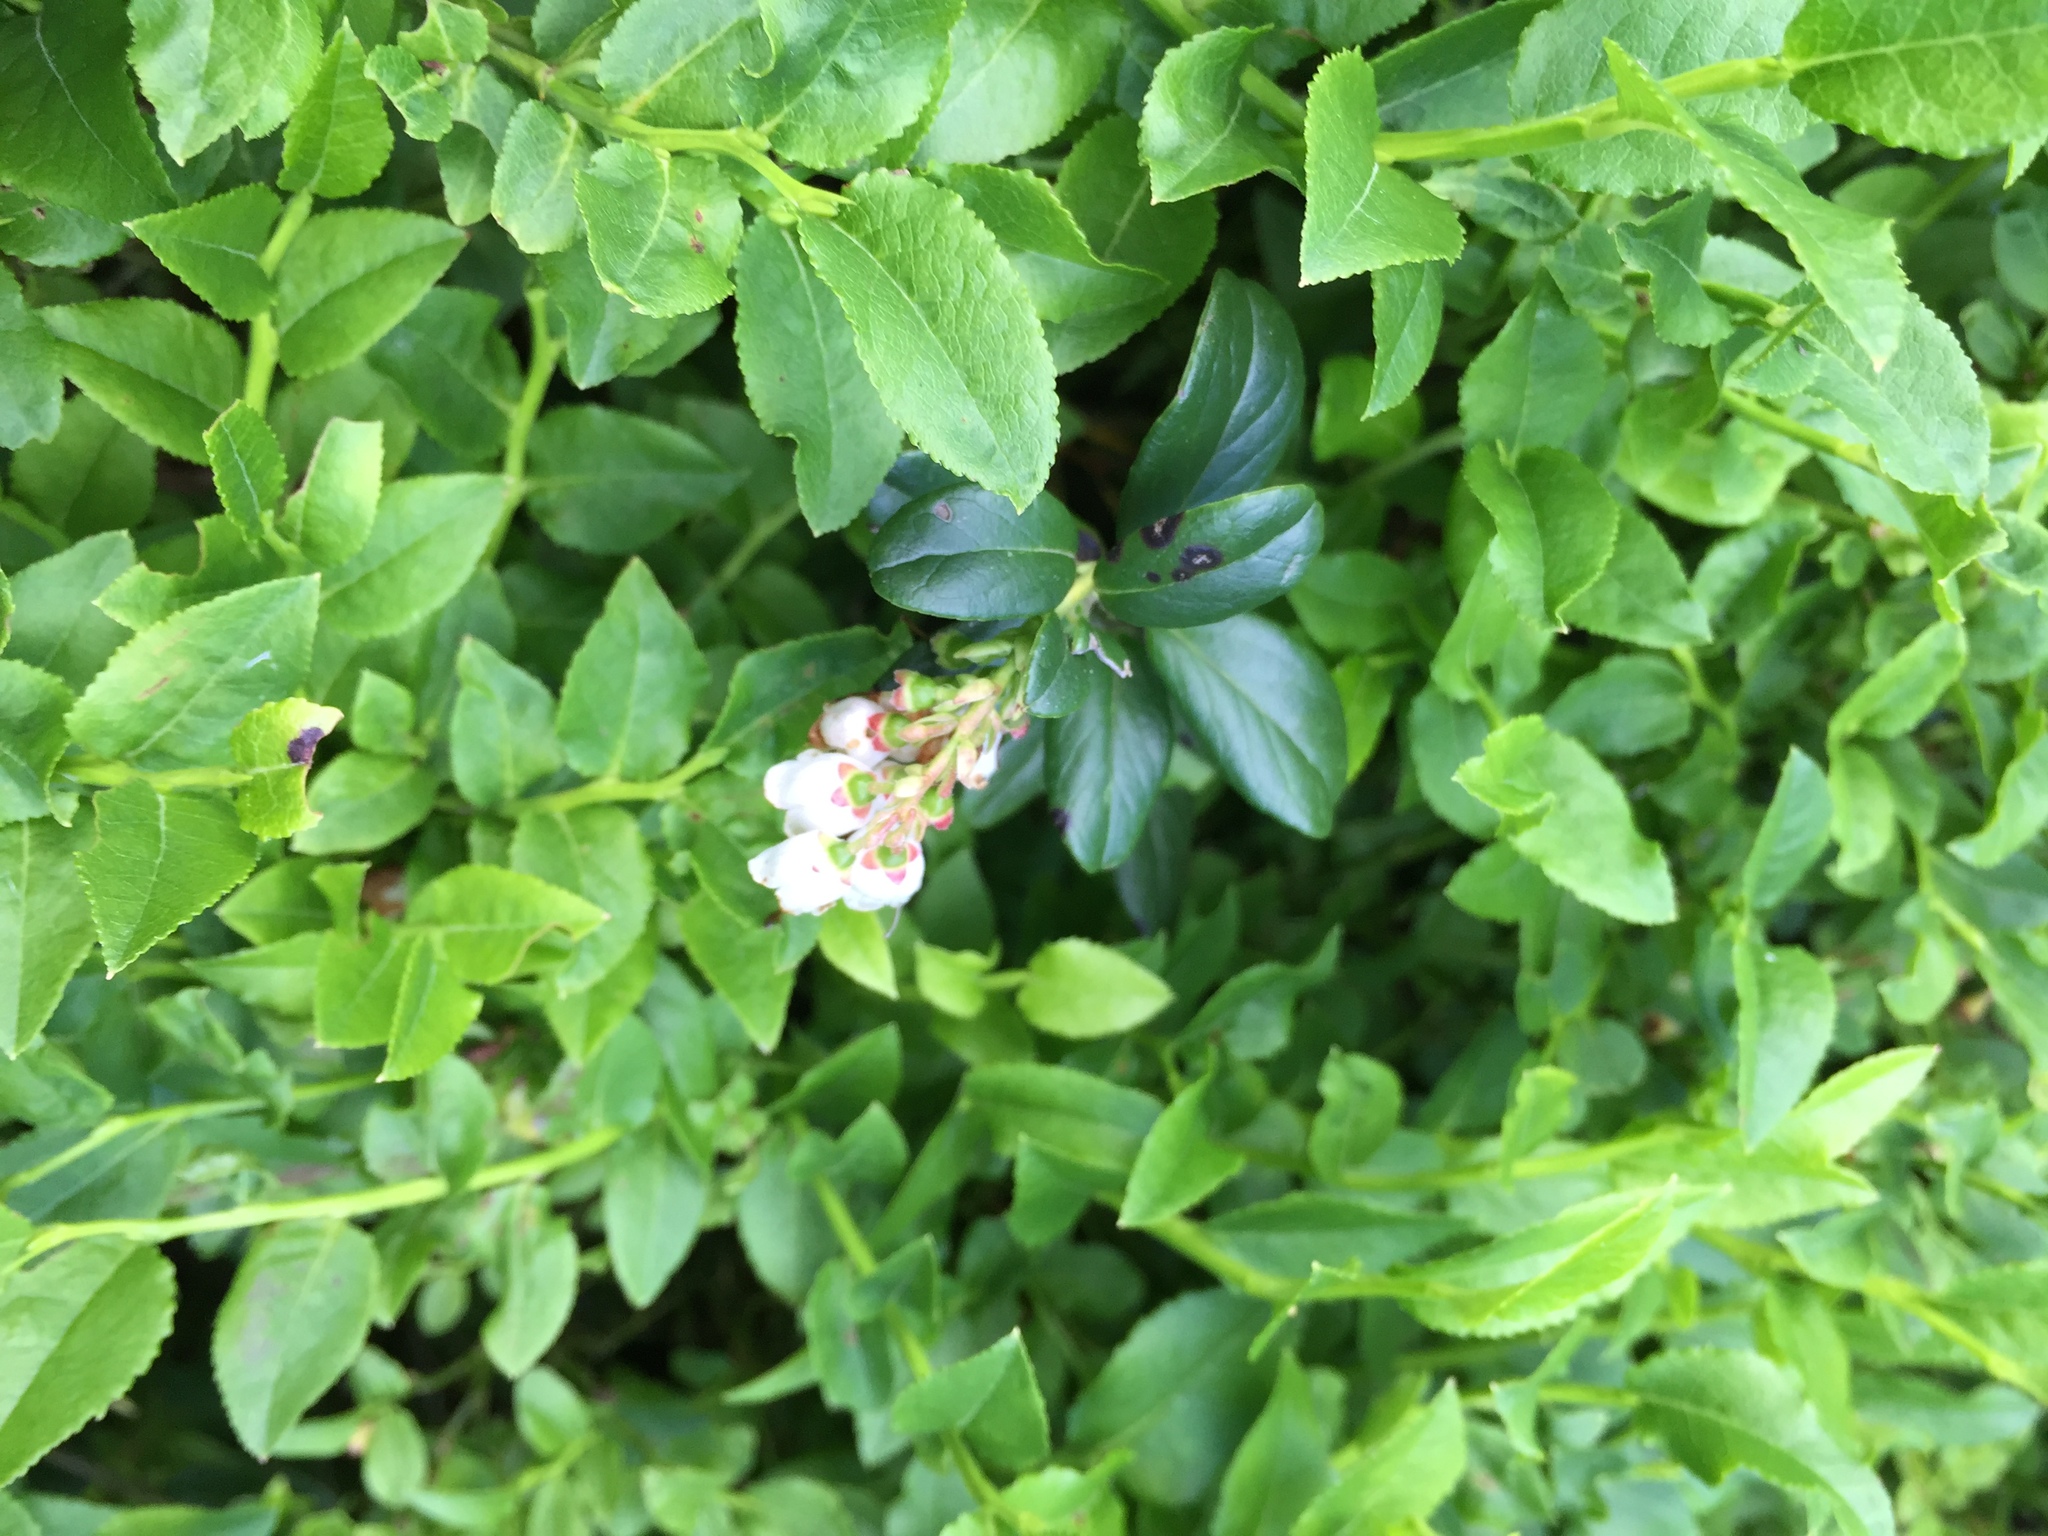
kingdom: Plantae
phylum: Tracheophyta
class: Magnoliopsida
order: Ericales
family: Ericaceae
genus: Vaccinium
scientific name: Vaccinium vitis-idaea
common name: Cowberry
